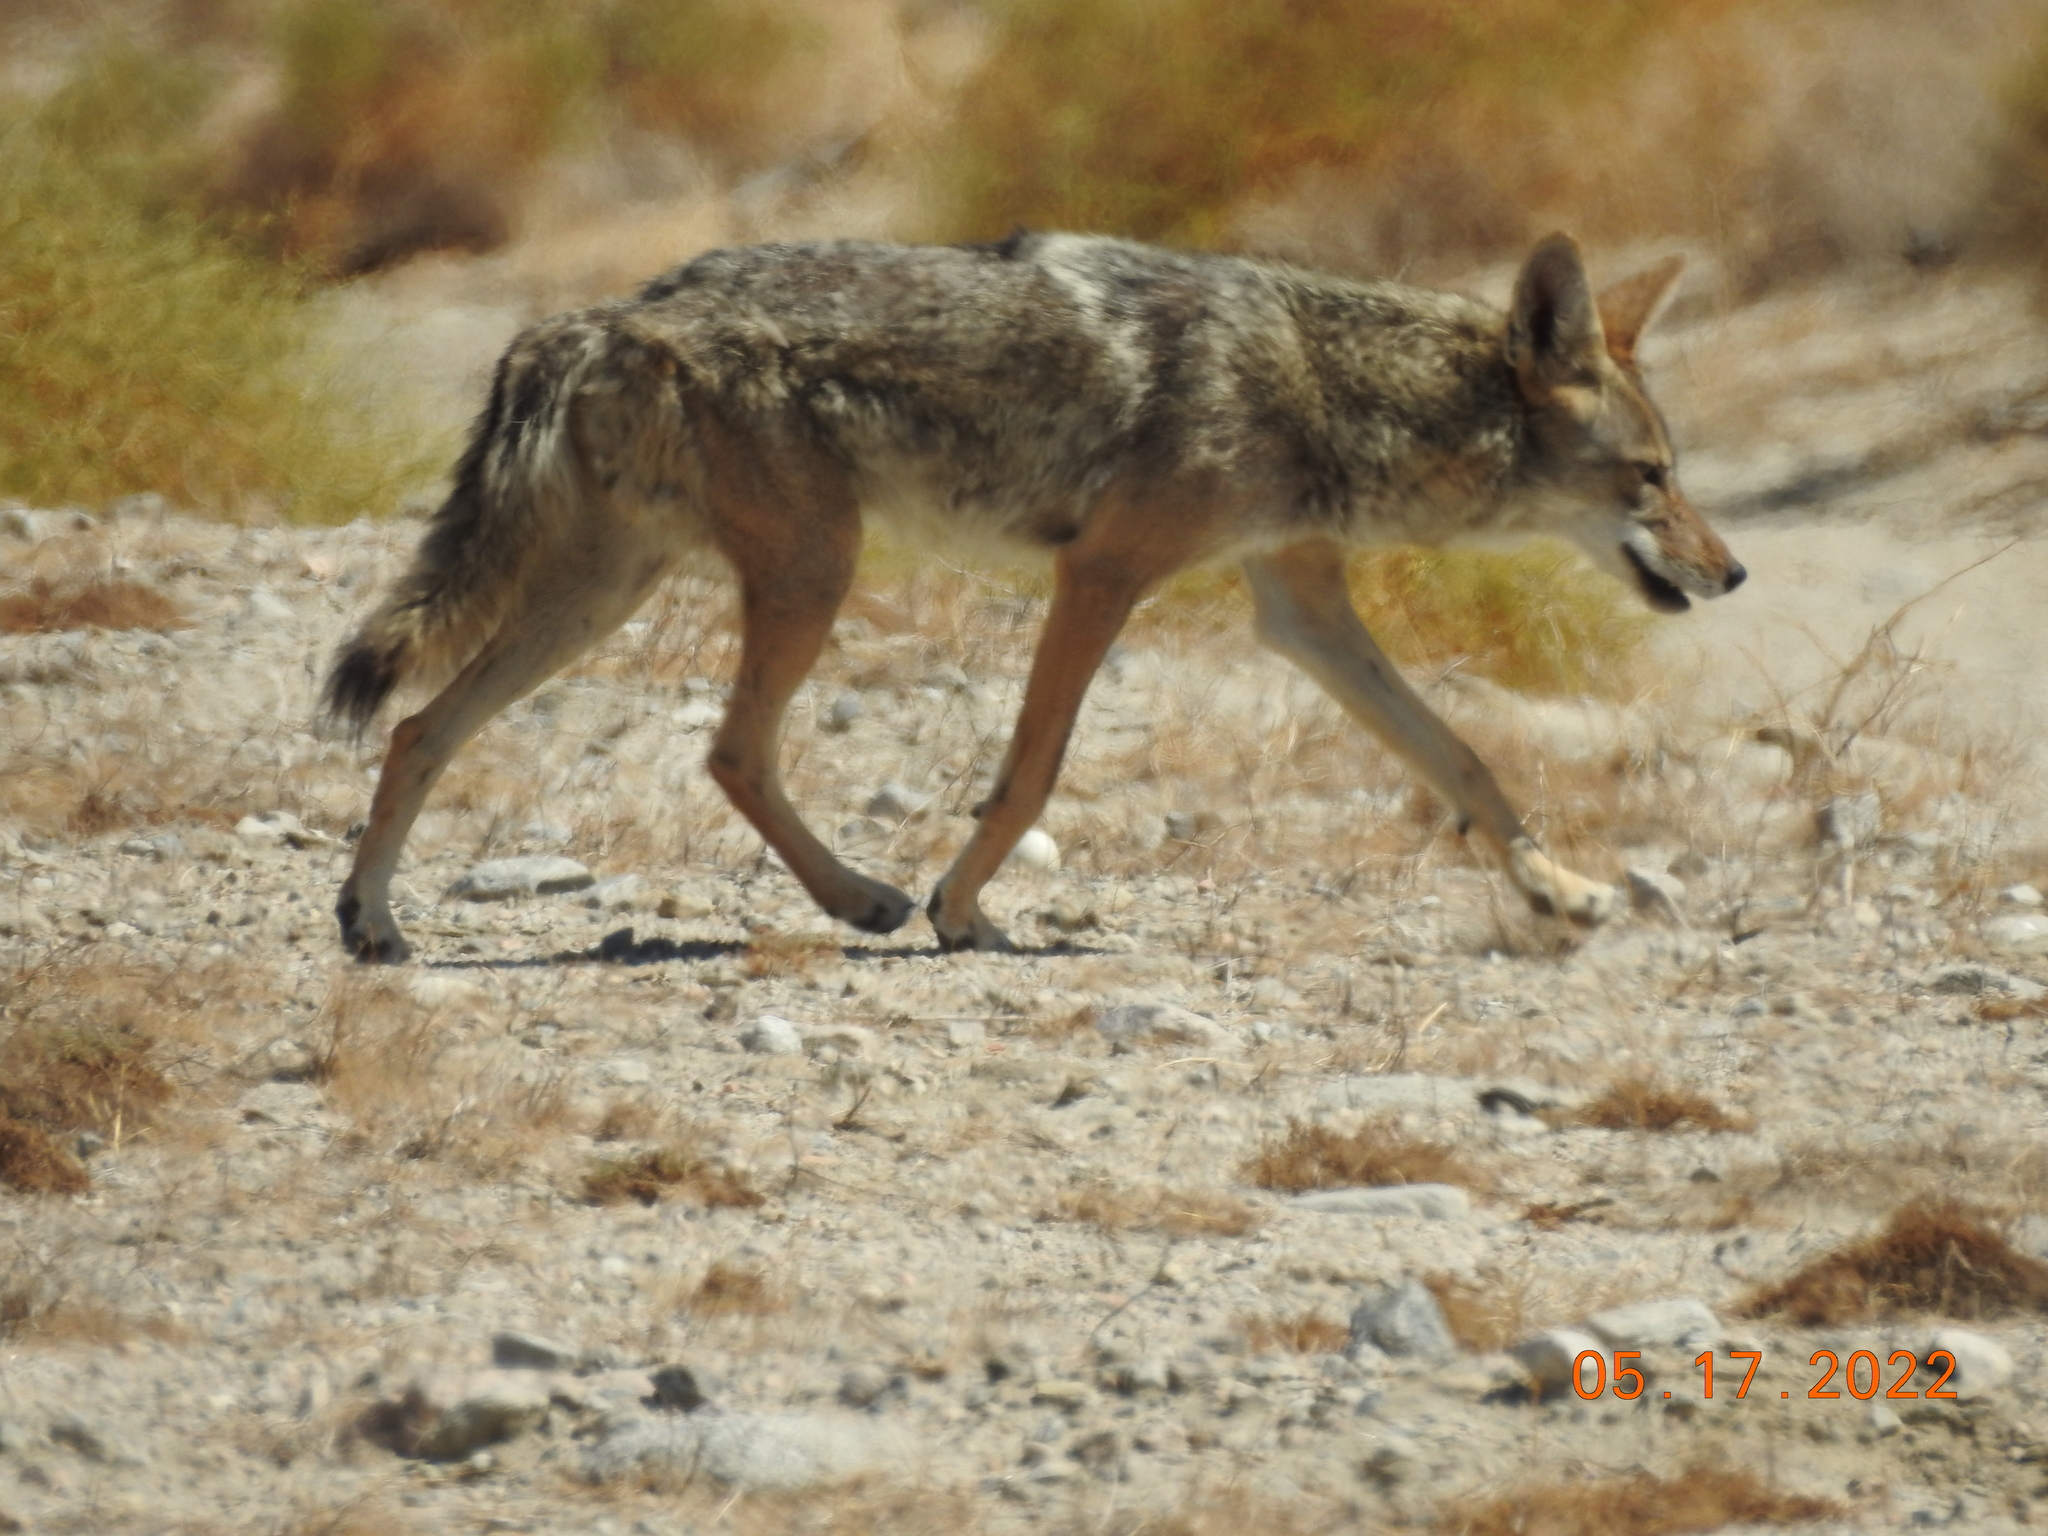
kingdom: Animalia
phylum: Chordata
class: Mammalia
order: Carnivora
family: Canidae
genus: Canis
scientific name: Canis latrans
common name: Coyote
